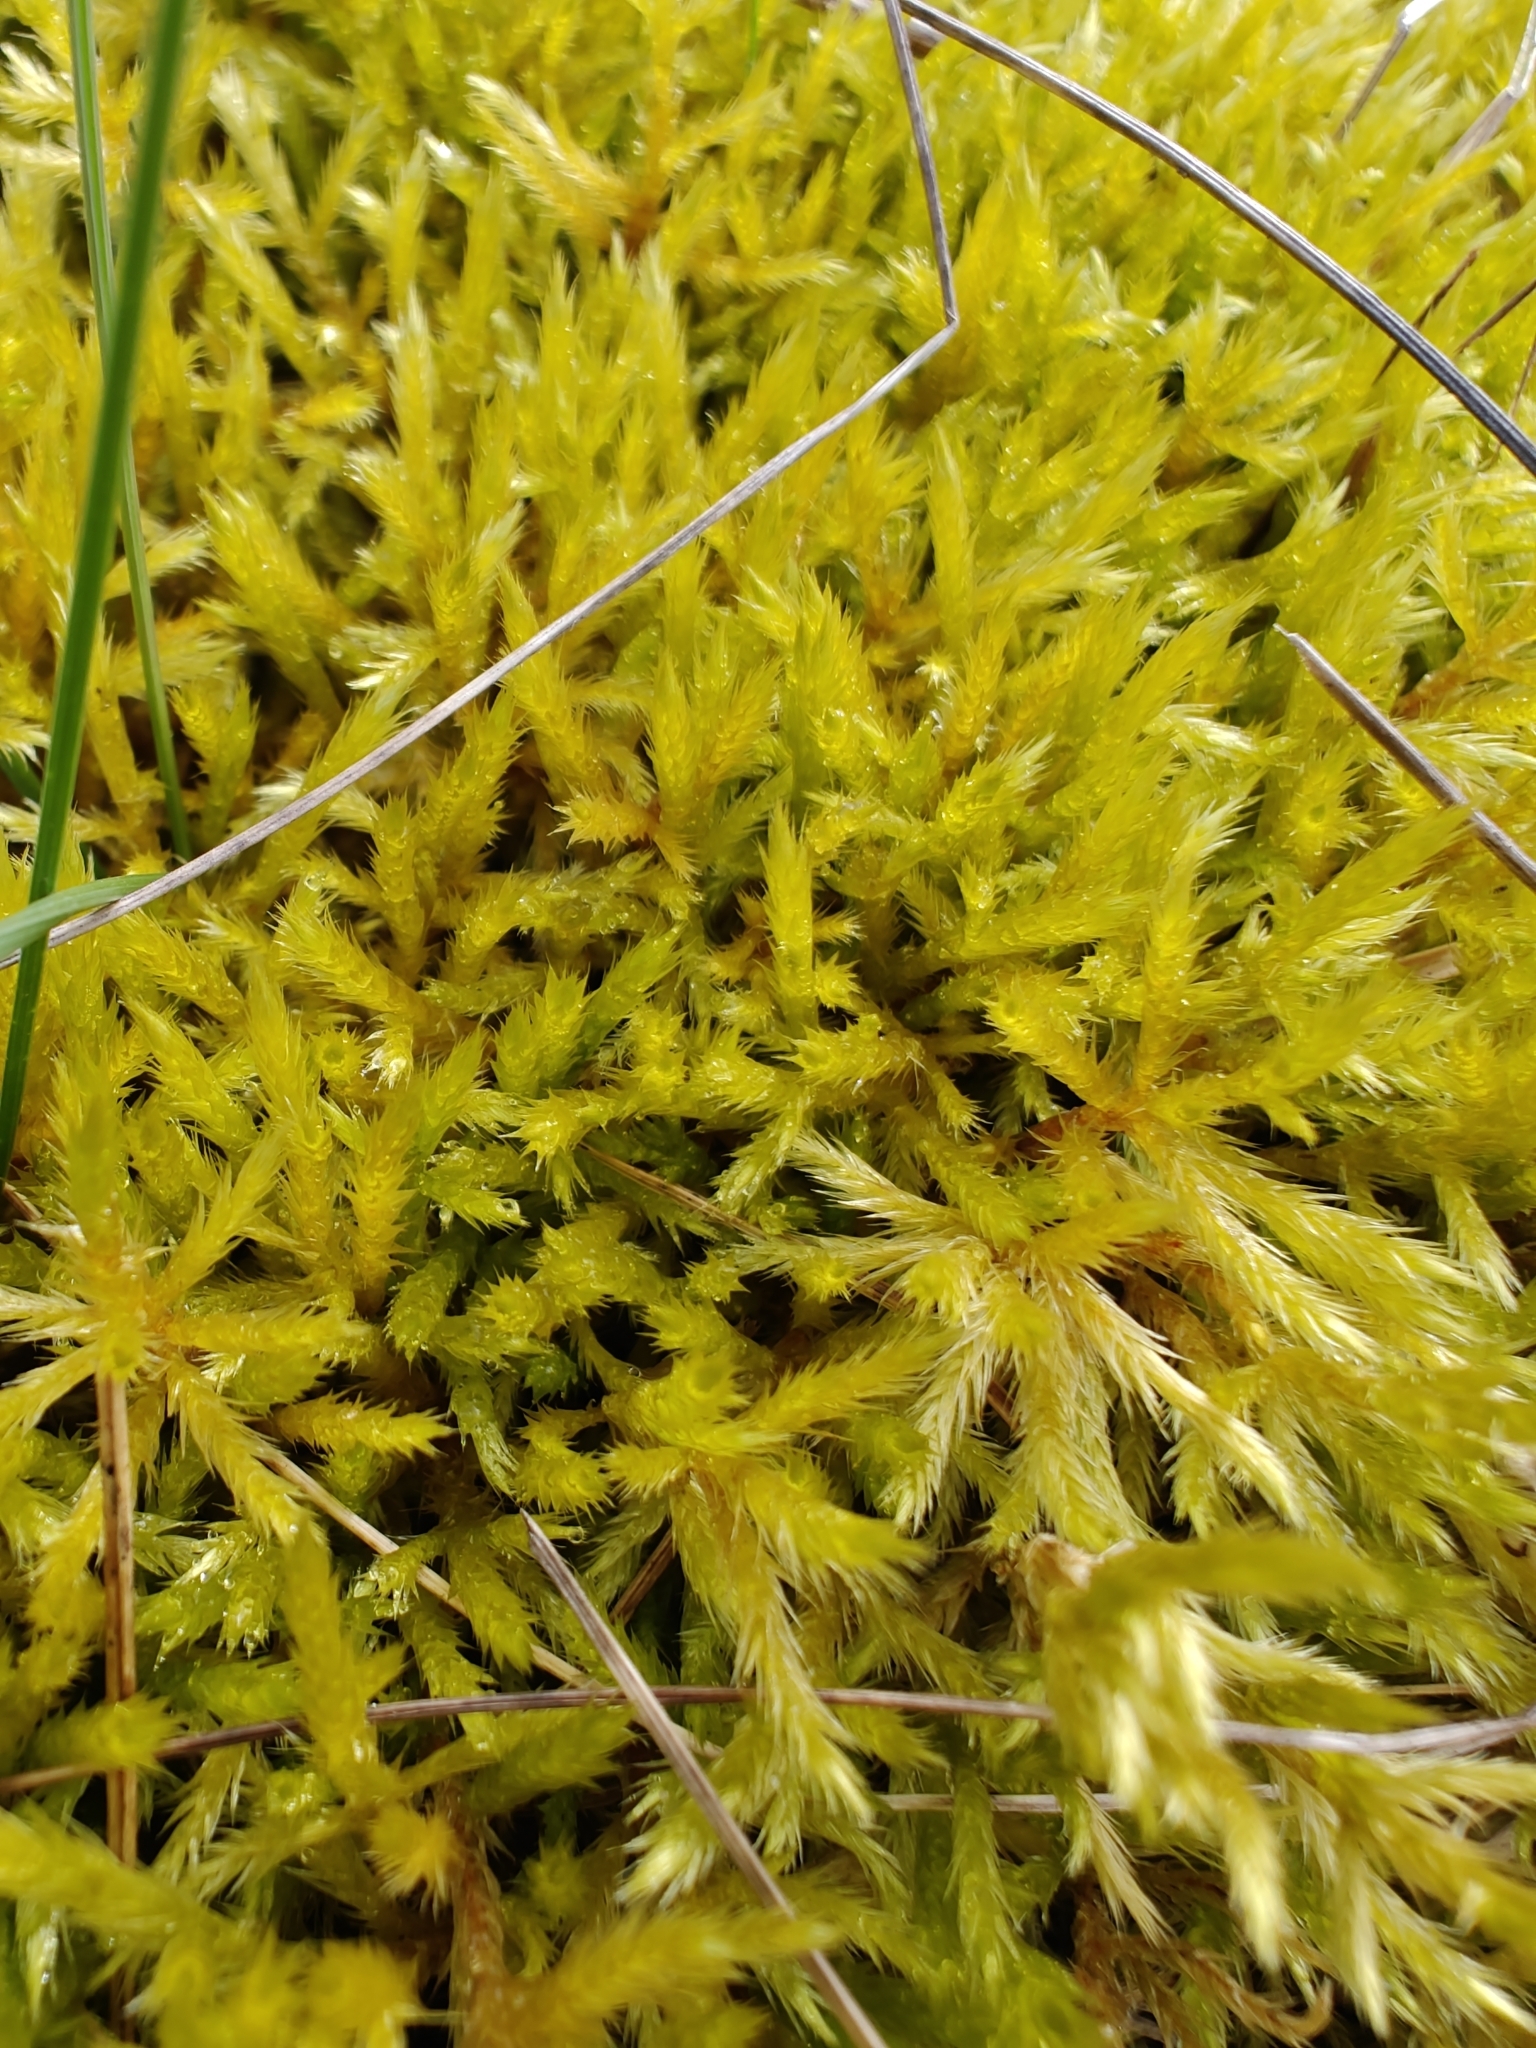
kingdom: Plantae
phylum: Bryophyta
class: Bryopsida
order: Hypnales
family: Brachytheciaceae
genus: Homalothecium
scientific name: Homalothecium lutescens
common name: Yellow feather-moss
